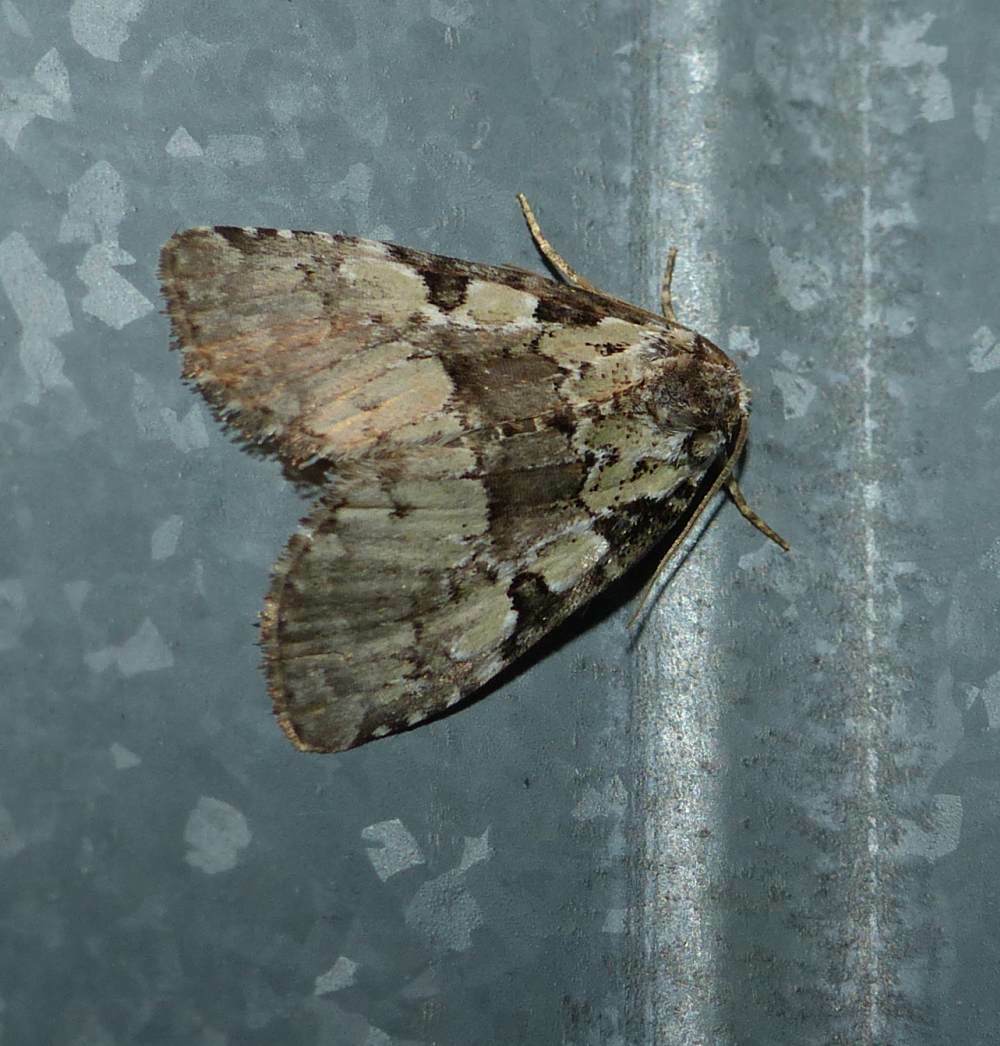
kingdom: Animalia
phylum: Arthropoda
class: Insecta
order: Lepidoptera
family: Noctuidae
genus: Leuconycta
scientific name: Leuconycta lepidula
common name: Marbled-green leuconycta moth
